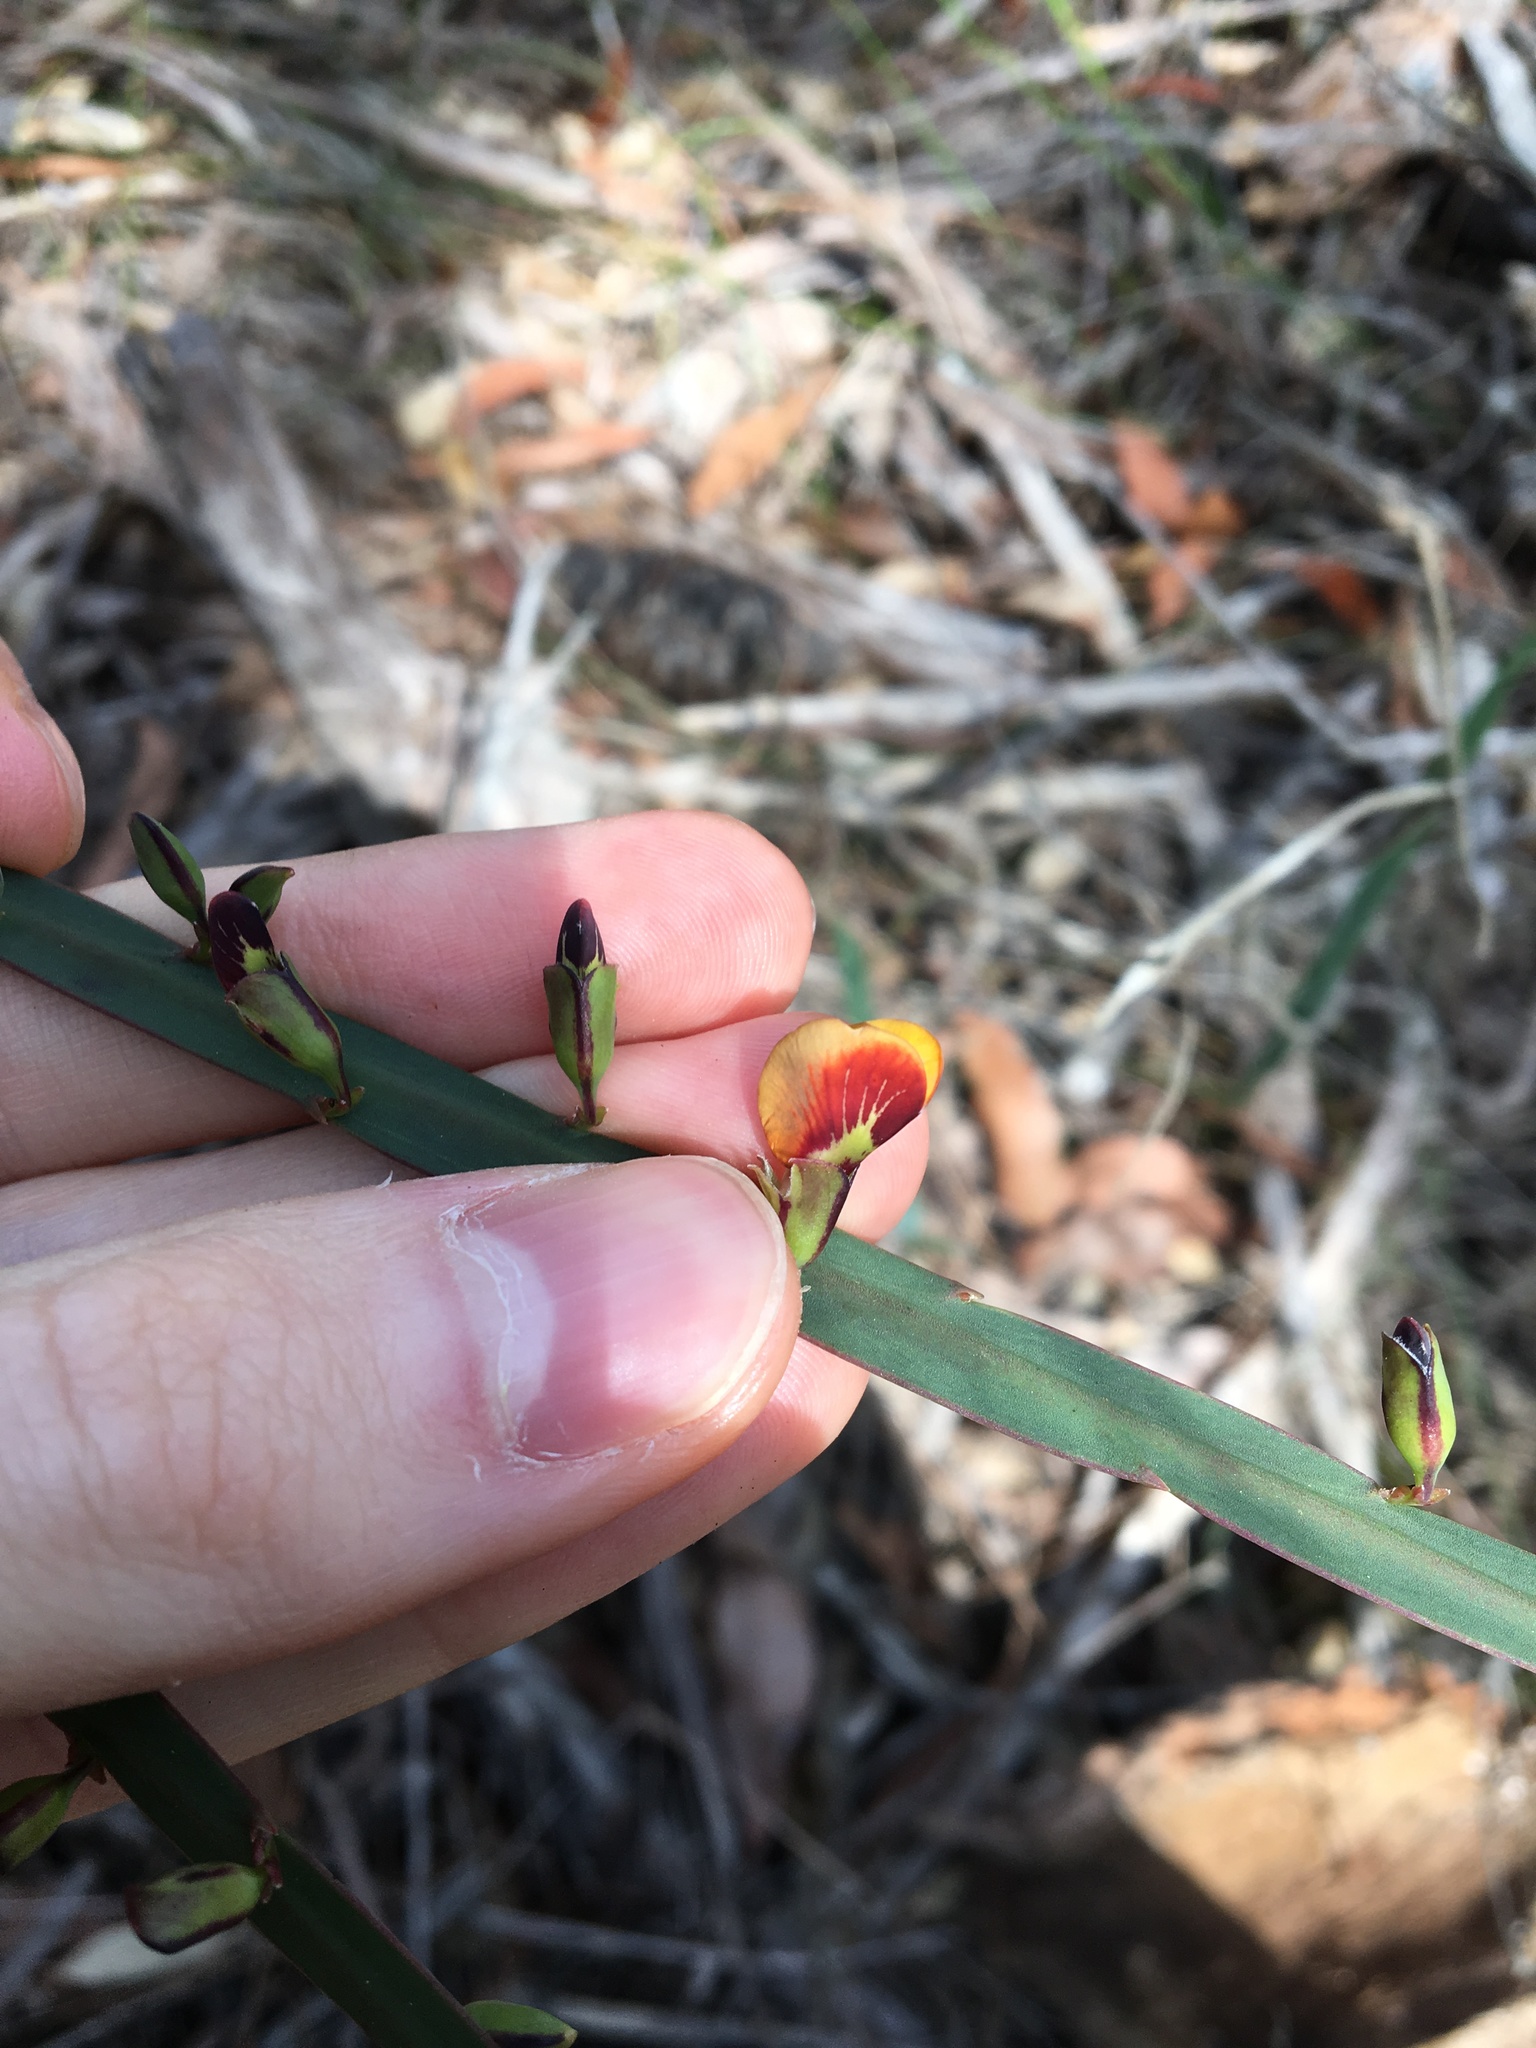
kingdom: Plantae
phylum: Tracheophyta
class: Magnoliopsida
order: Fabales
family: Fabaceae
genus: Bossiaea
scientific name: Bossiaea scolopendria
